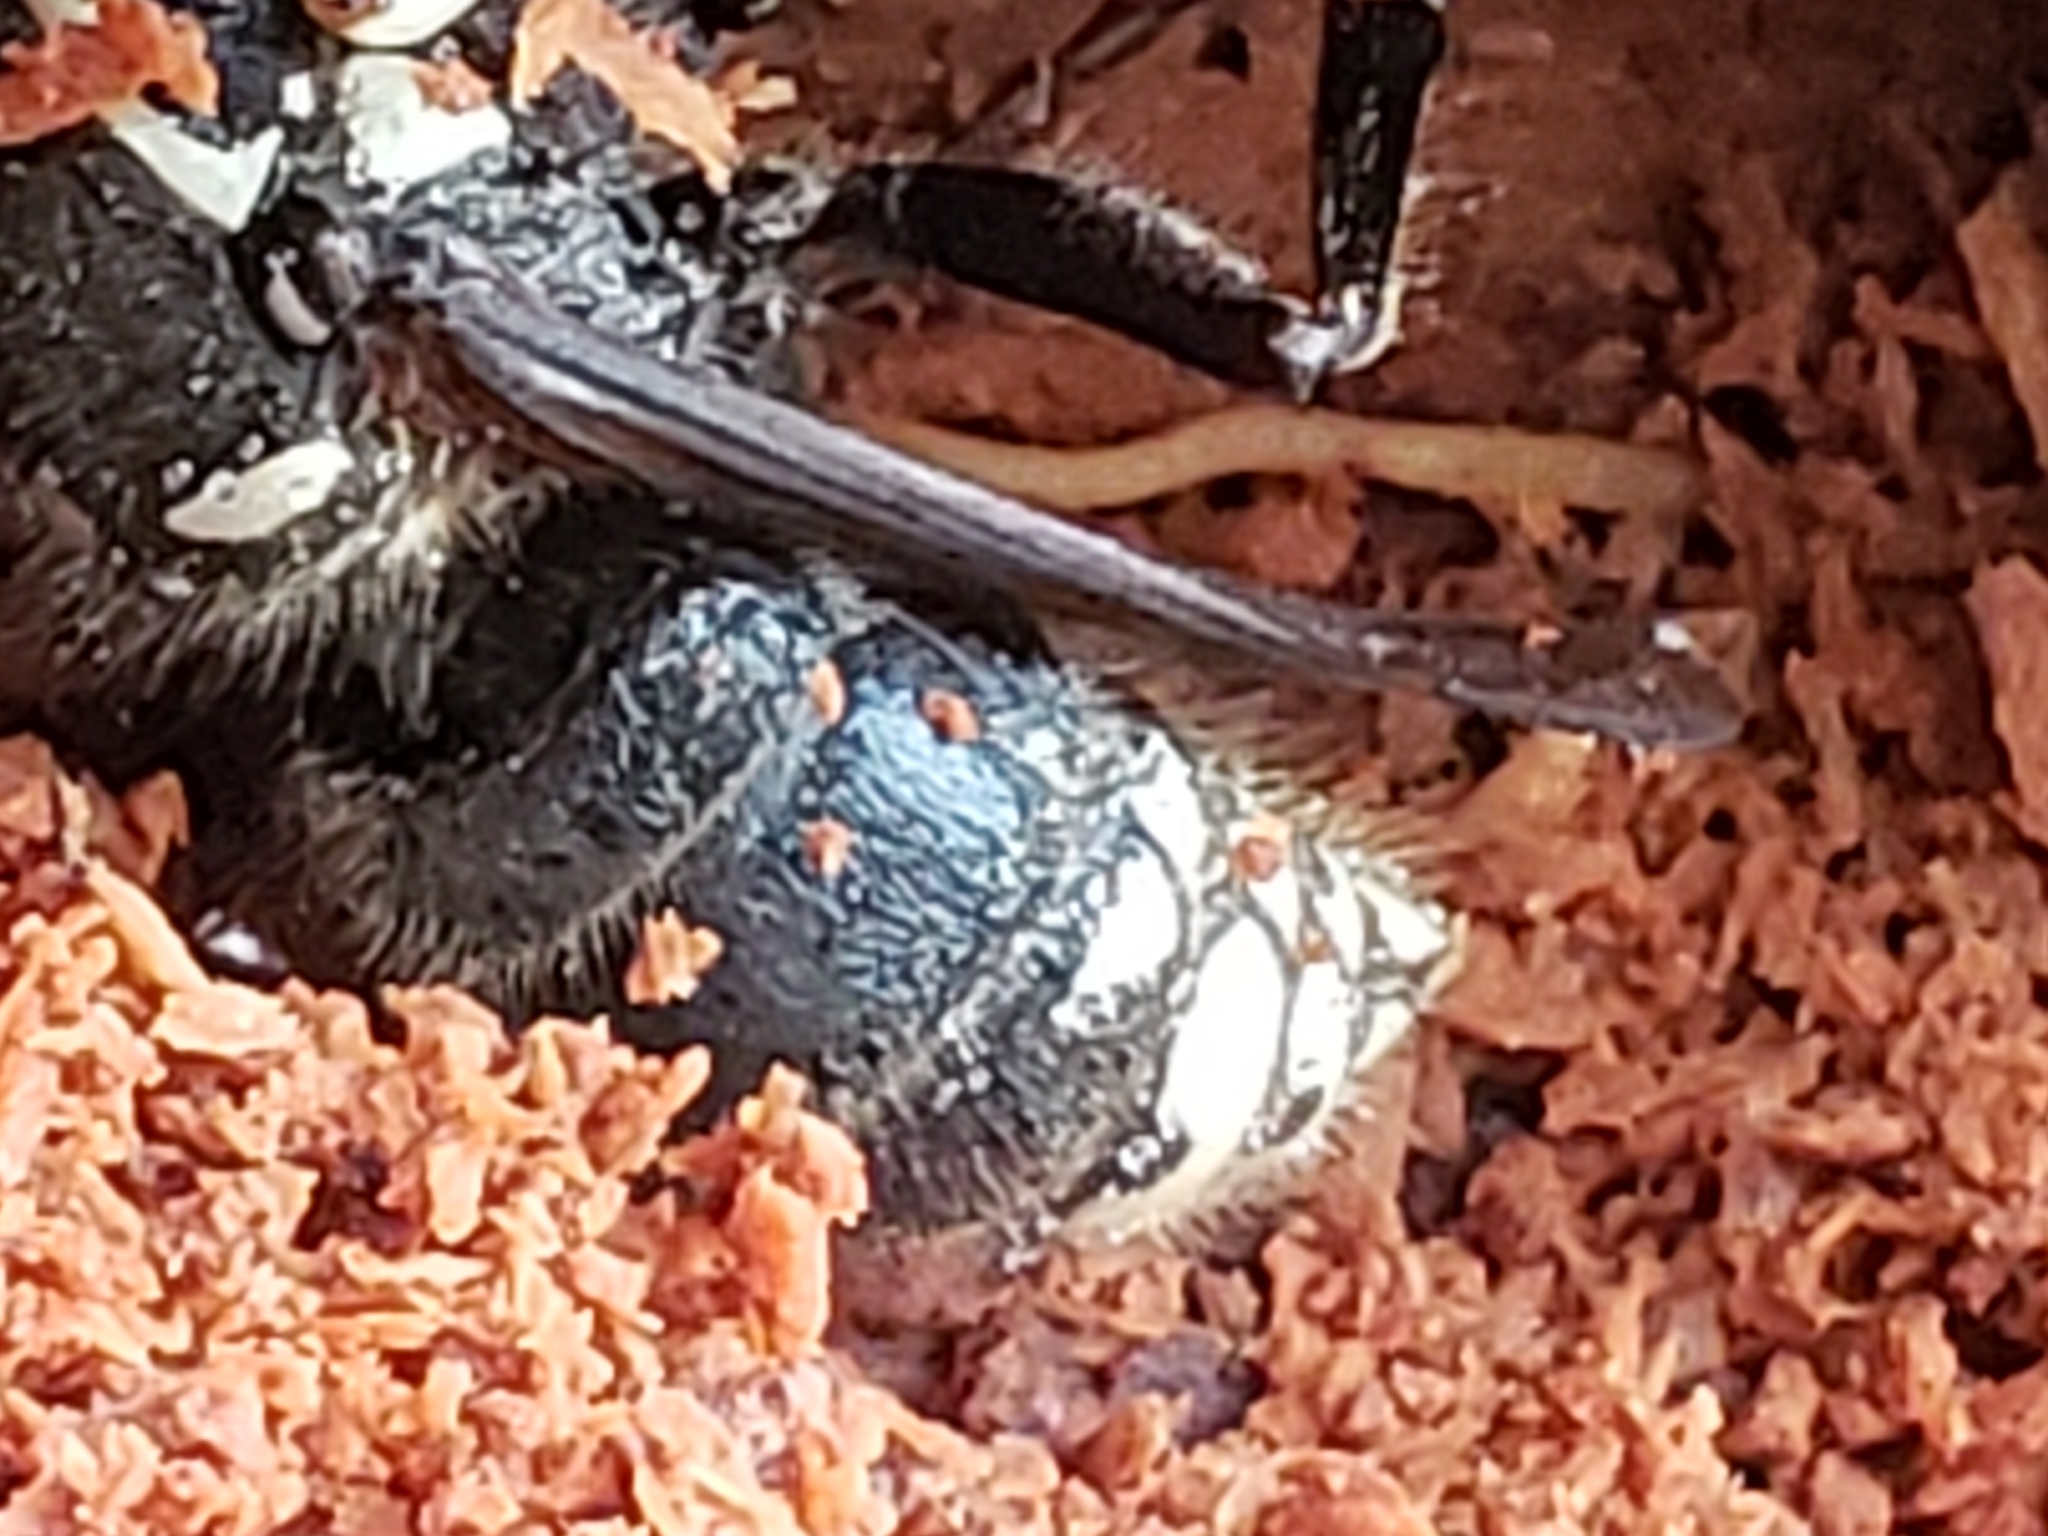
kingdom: Animalia
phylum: Arthropoda
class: Insecta
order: Hymenoptera
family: Vespidae
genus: Dolichovespula
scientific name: Dolichovespula maculata
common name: Bald-faced hornet
